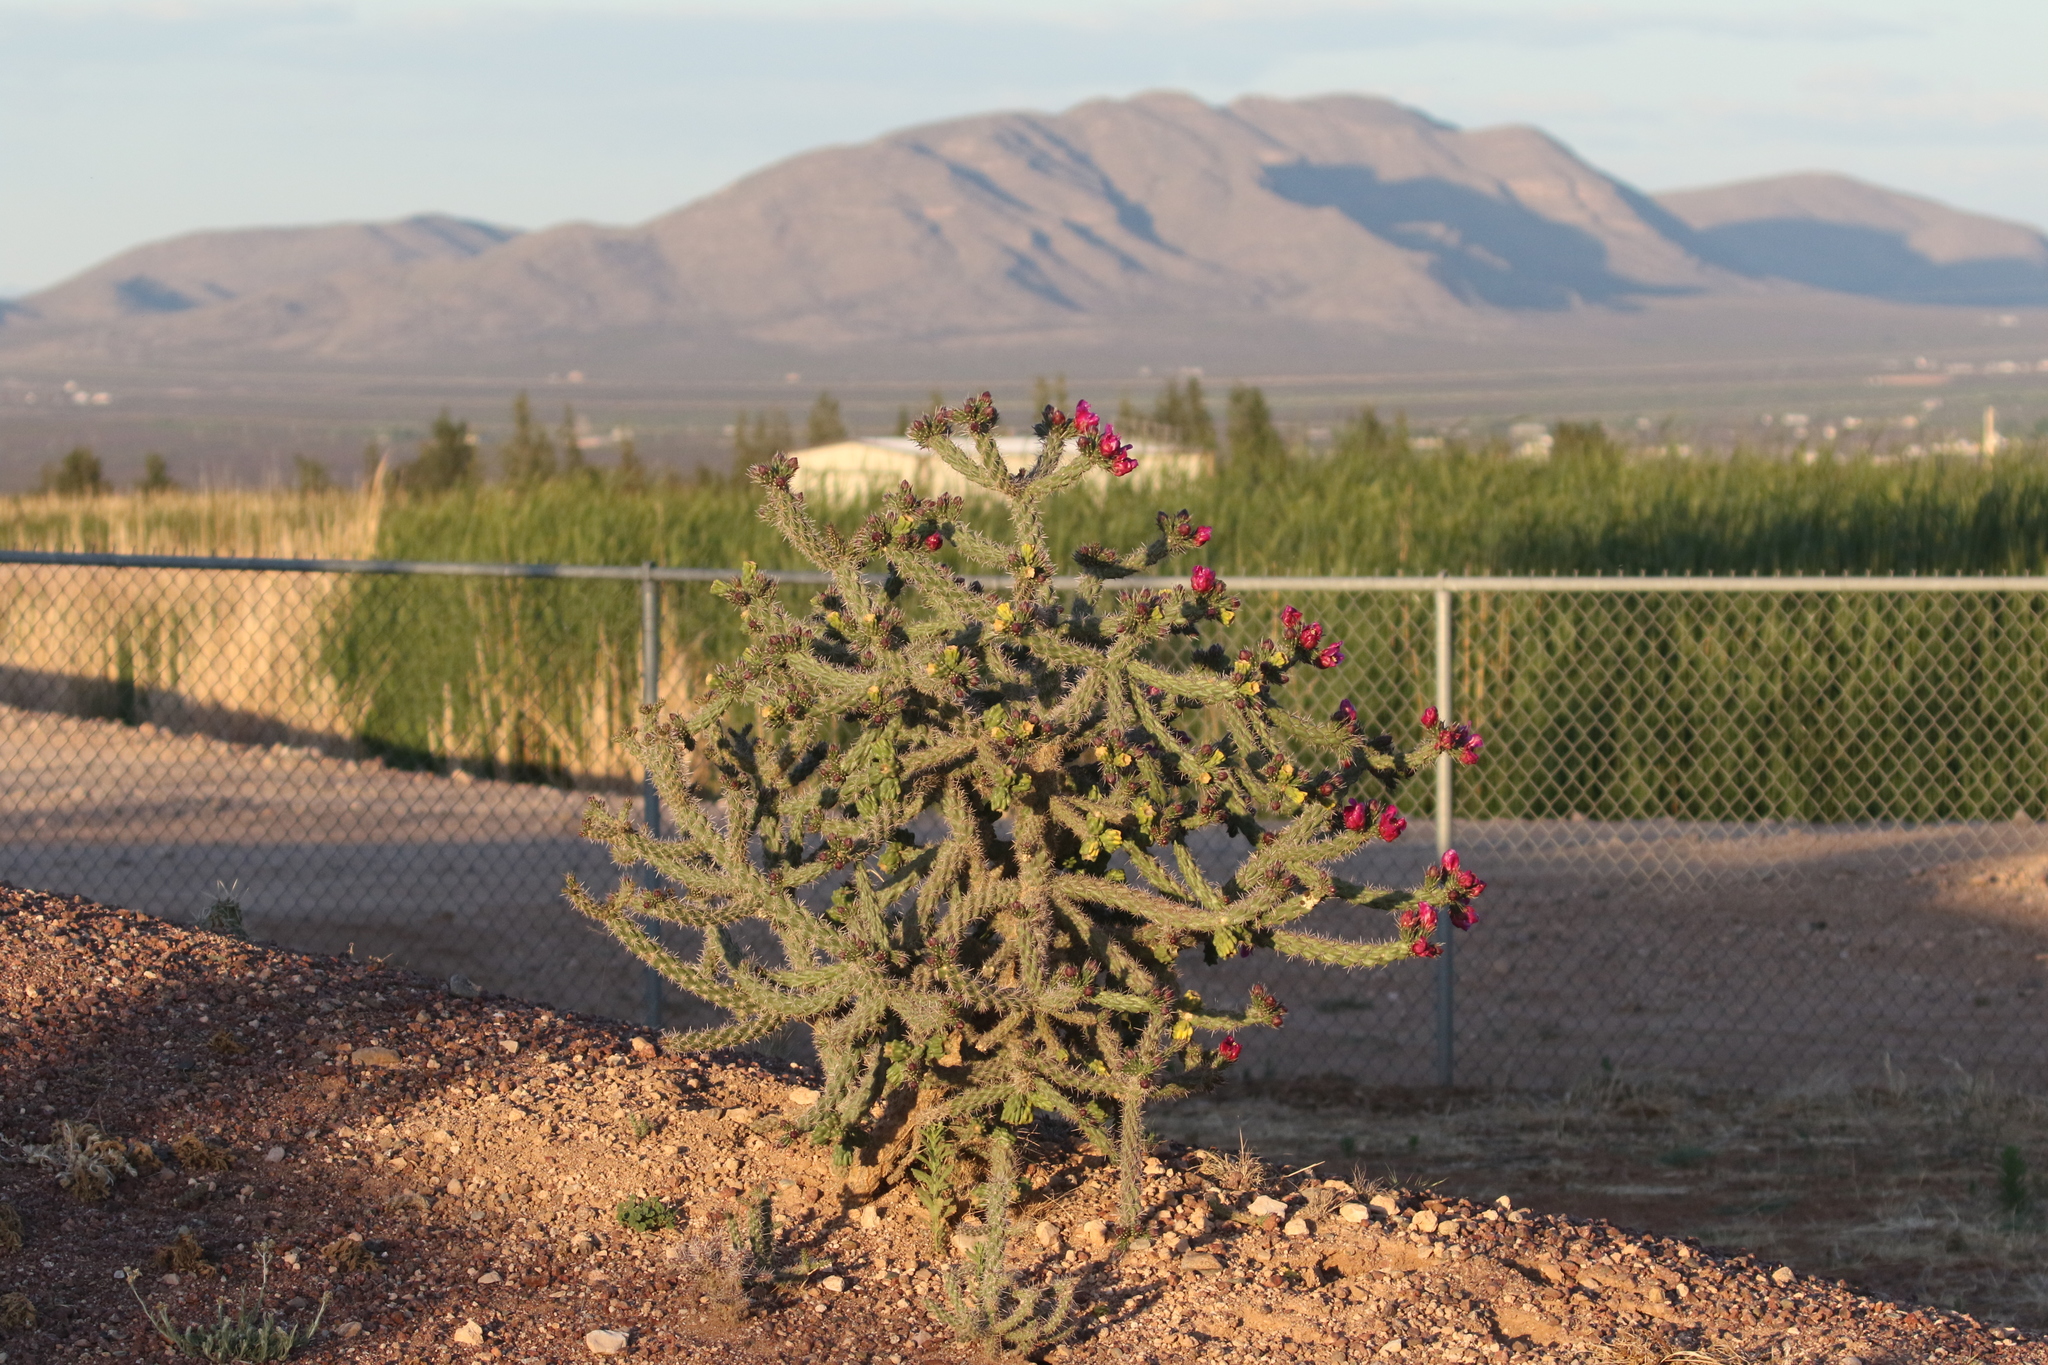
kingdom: Plantae
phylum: Tracheophyta
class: Magnoliopsida
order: Caryophyllales
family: Cactaceae
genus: Cylindropuntia
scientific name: Cylindropuntia imbricata
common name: Candelabrum cactus
